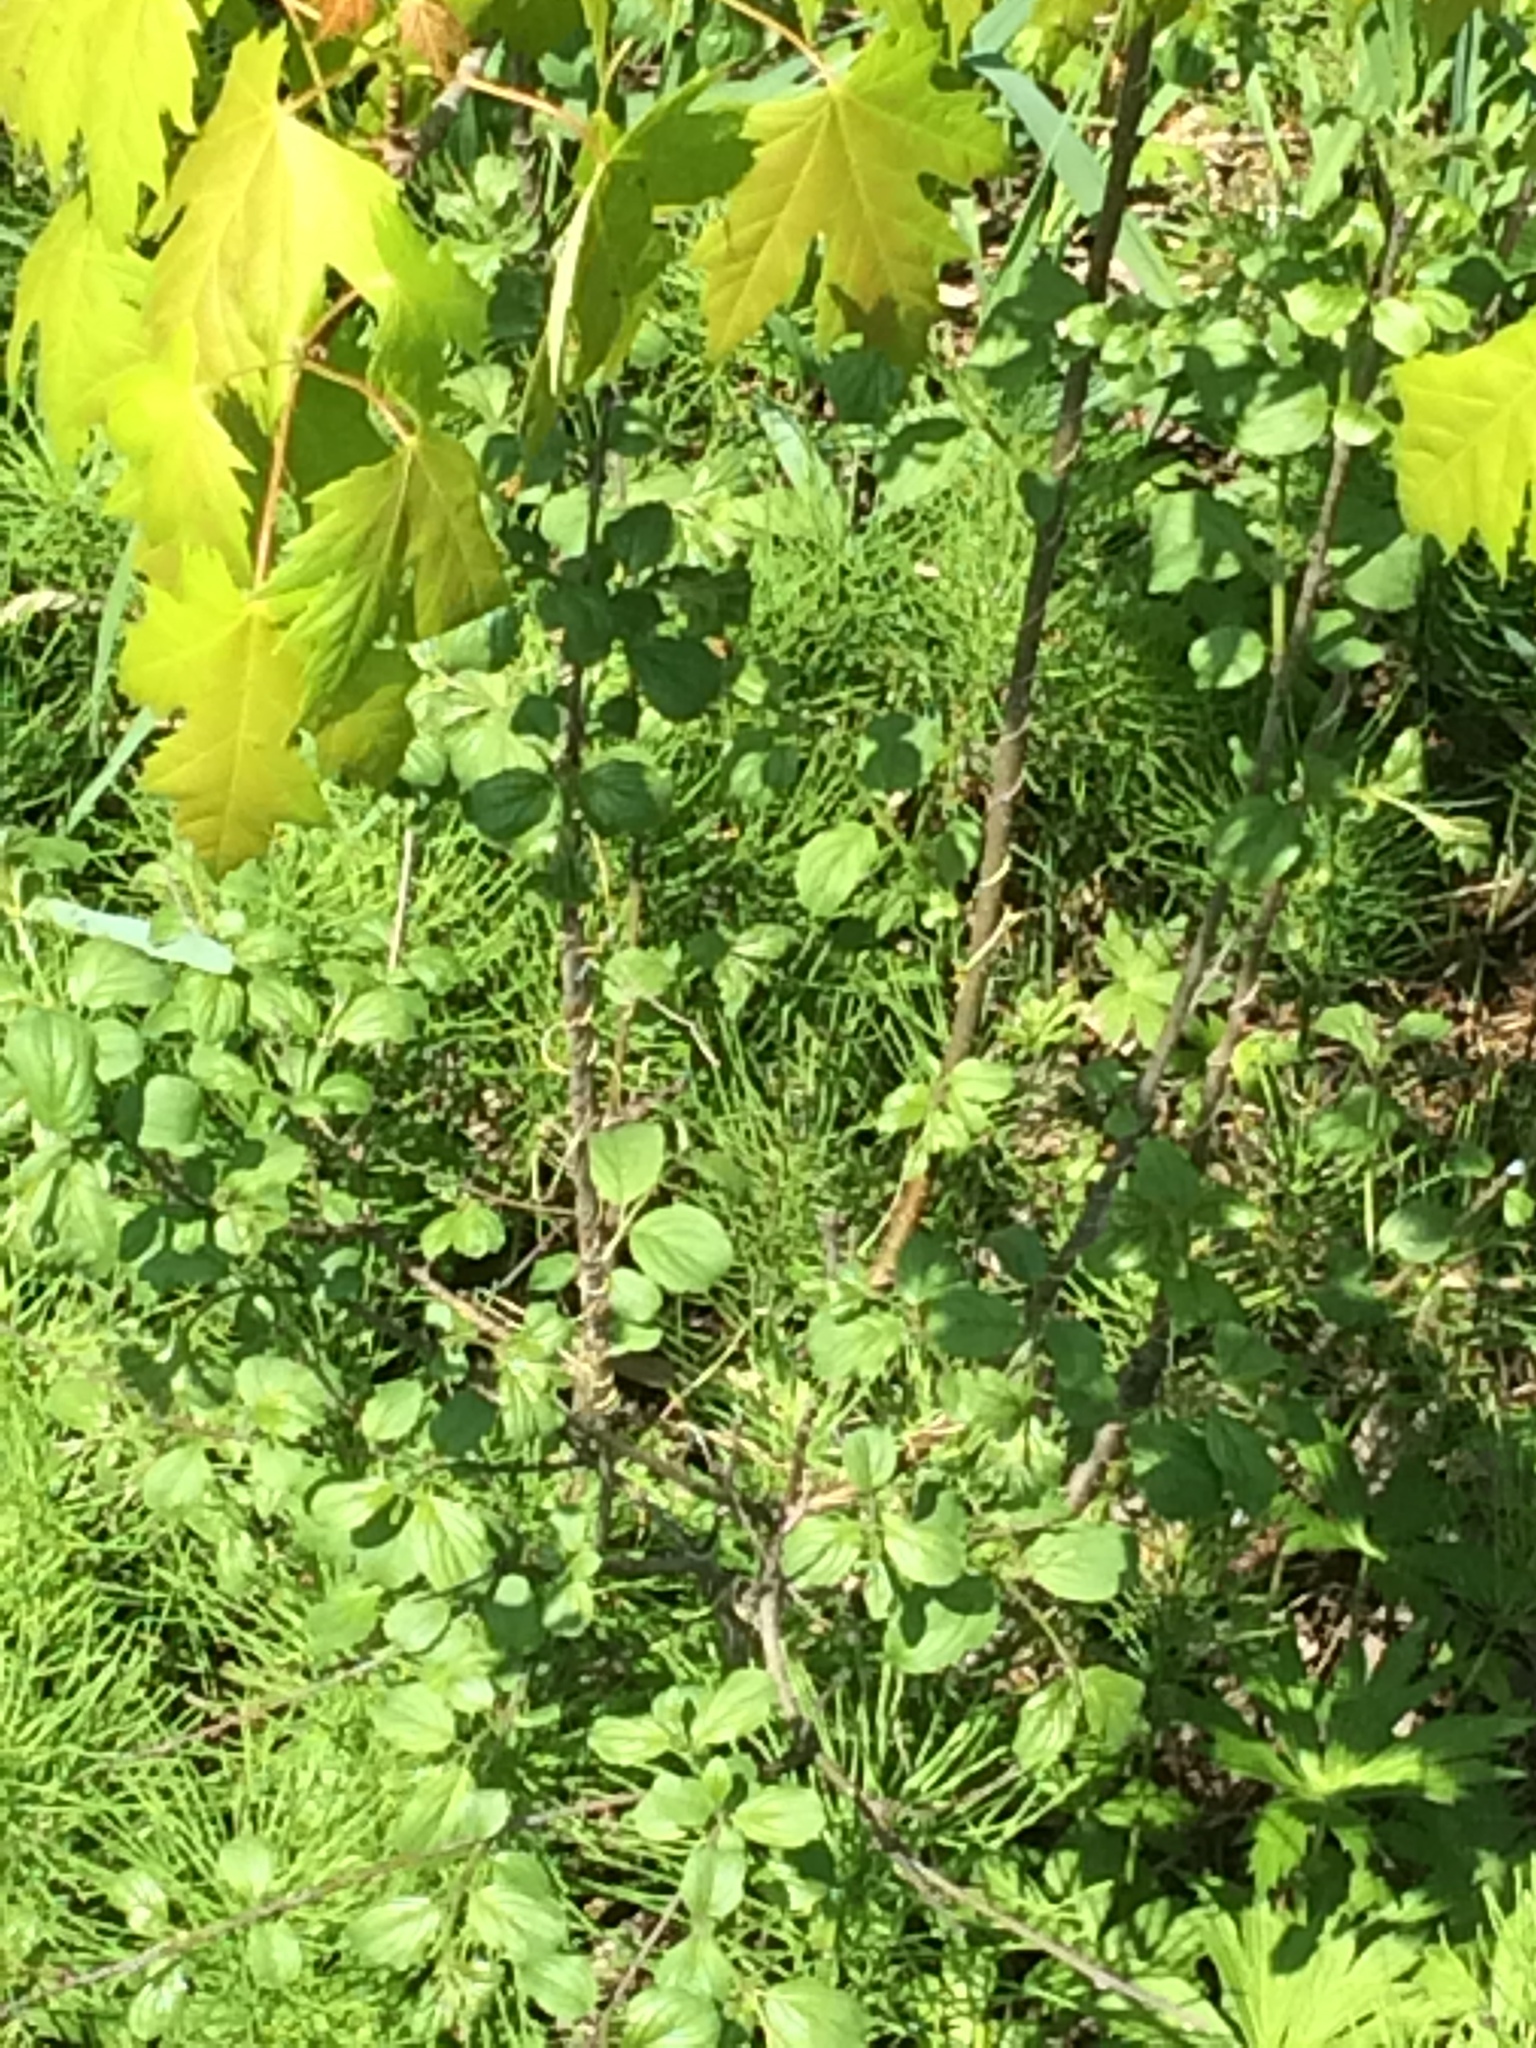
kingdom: Plantae
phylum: Tracheophyta
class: Magnoliopsida
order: Rosales
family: Rhamnaceae
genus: Rhamnus
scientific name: Rhamnus cathartica
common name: Common buckthorn
